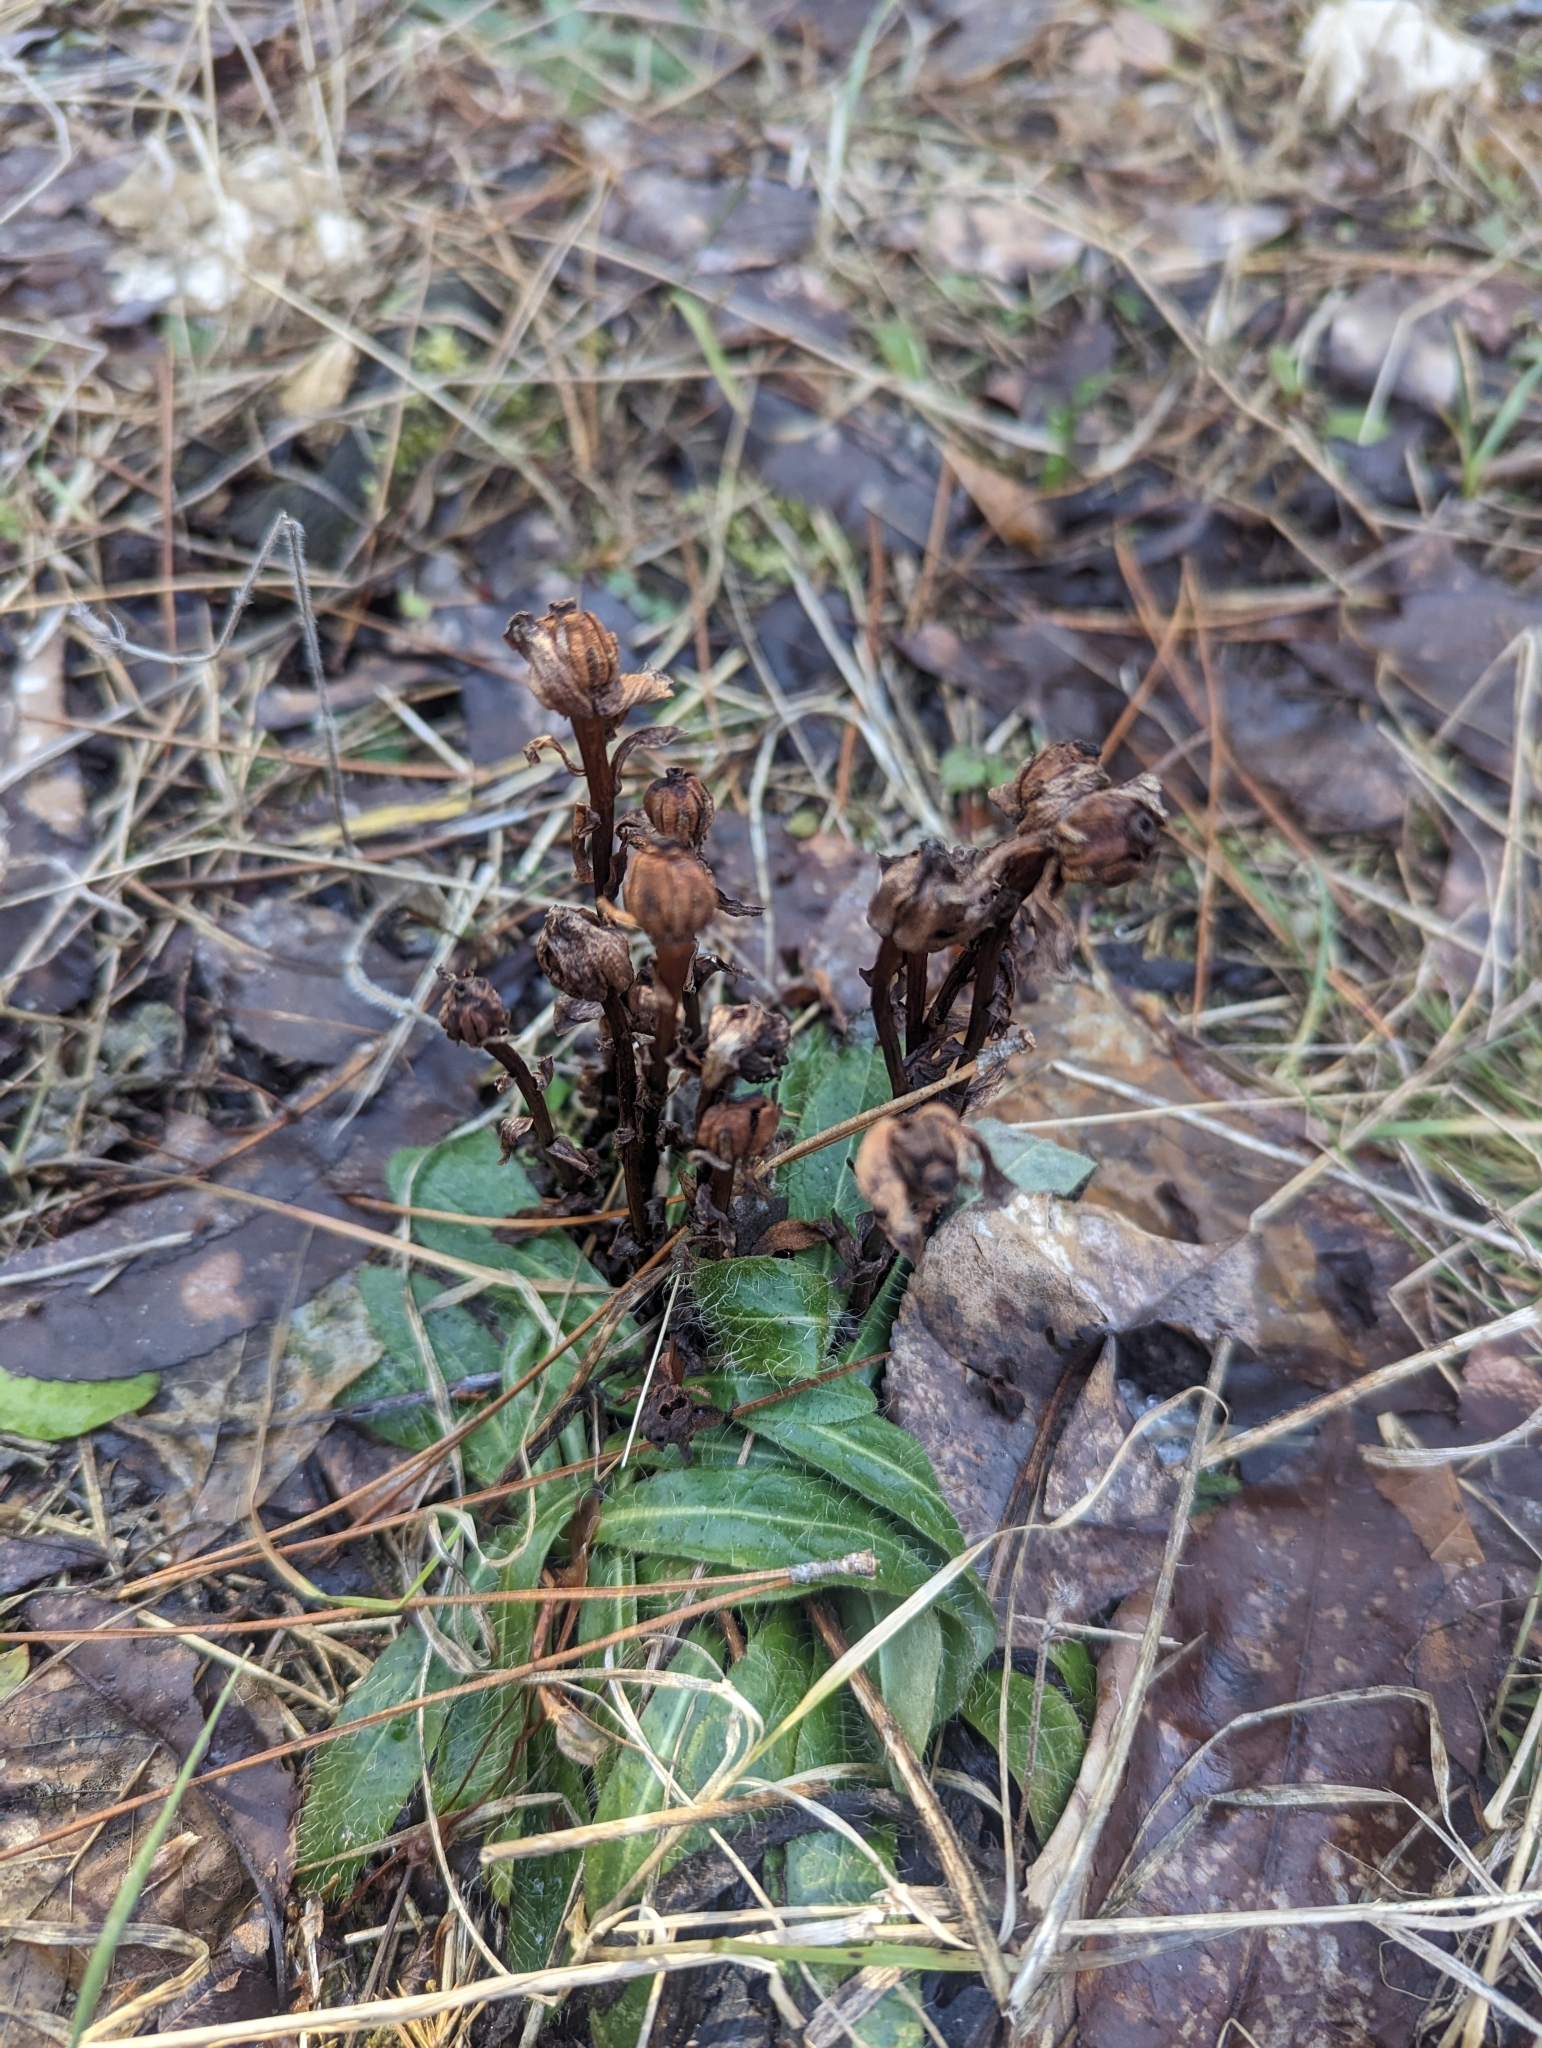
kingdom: Plantae
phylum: Tracheophyta
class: Magnoliopsida
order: Ericales
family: Ericaceae
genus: Monotropa
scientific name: Monotropa uniflora
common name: Convulsion root
